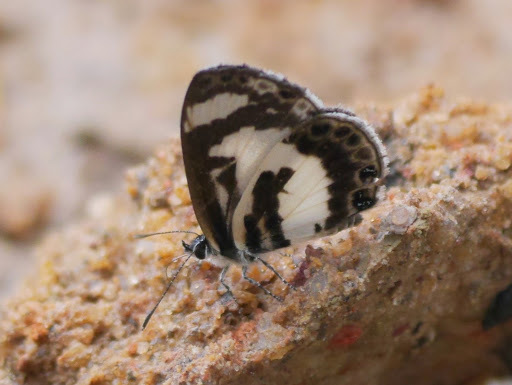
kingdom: Animalia
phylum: Arthropoda
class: Insecta
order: Lepidoptera
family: Lycaenidae
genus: Azanus
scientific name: Azanus isis
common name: White-banded babul blue
